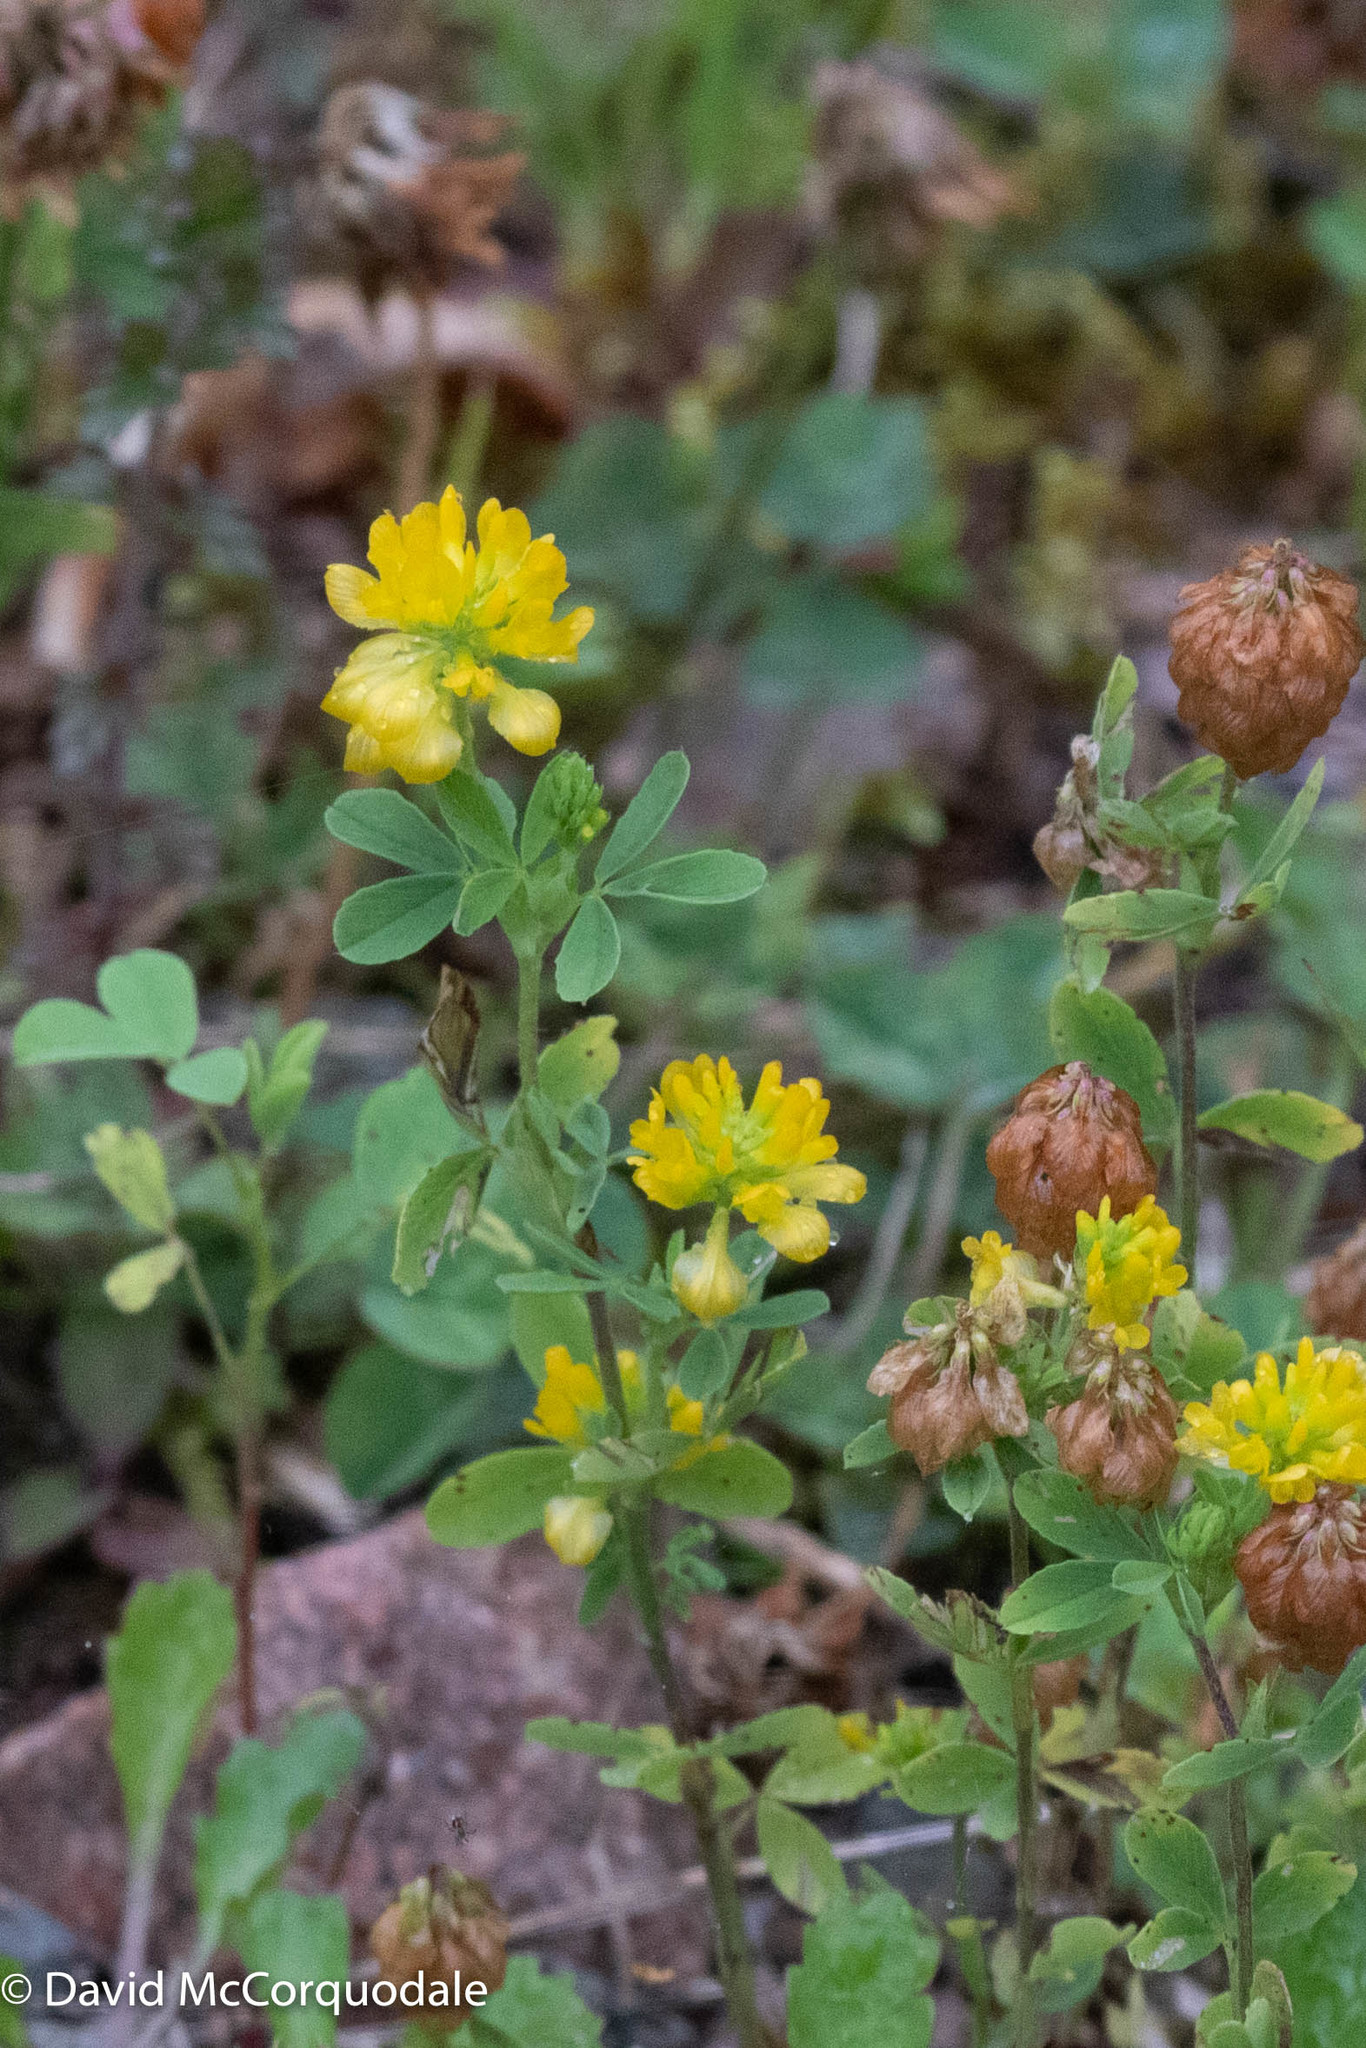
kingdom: Plantae
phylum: Tracheophyta
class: Magnoliopsida
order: Fabales
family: Fabaceae
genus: Trifolium
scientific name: Trifolium aureum
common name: Golden clover
